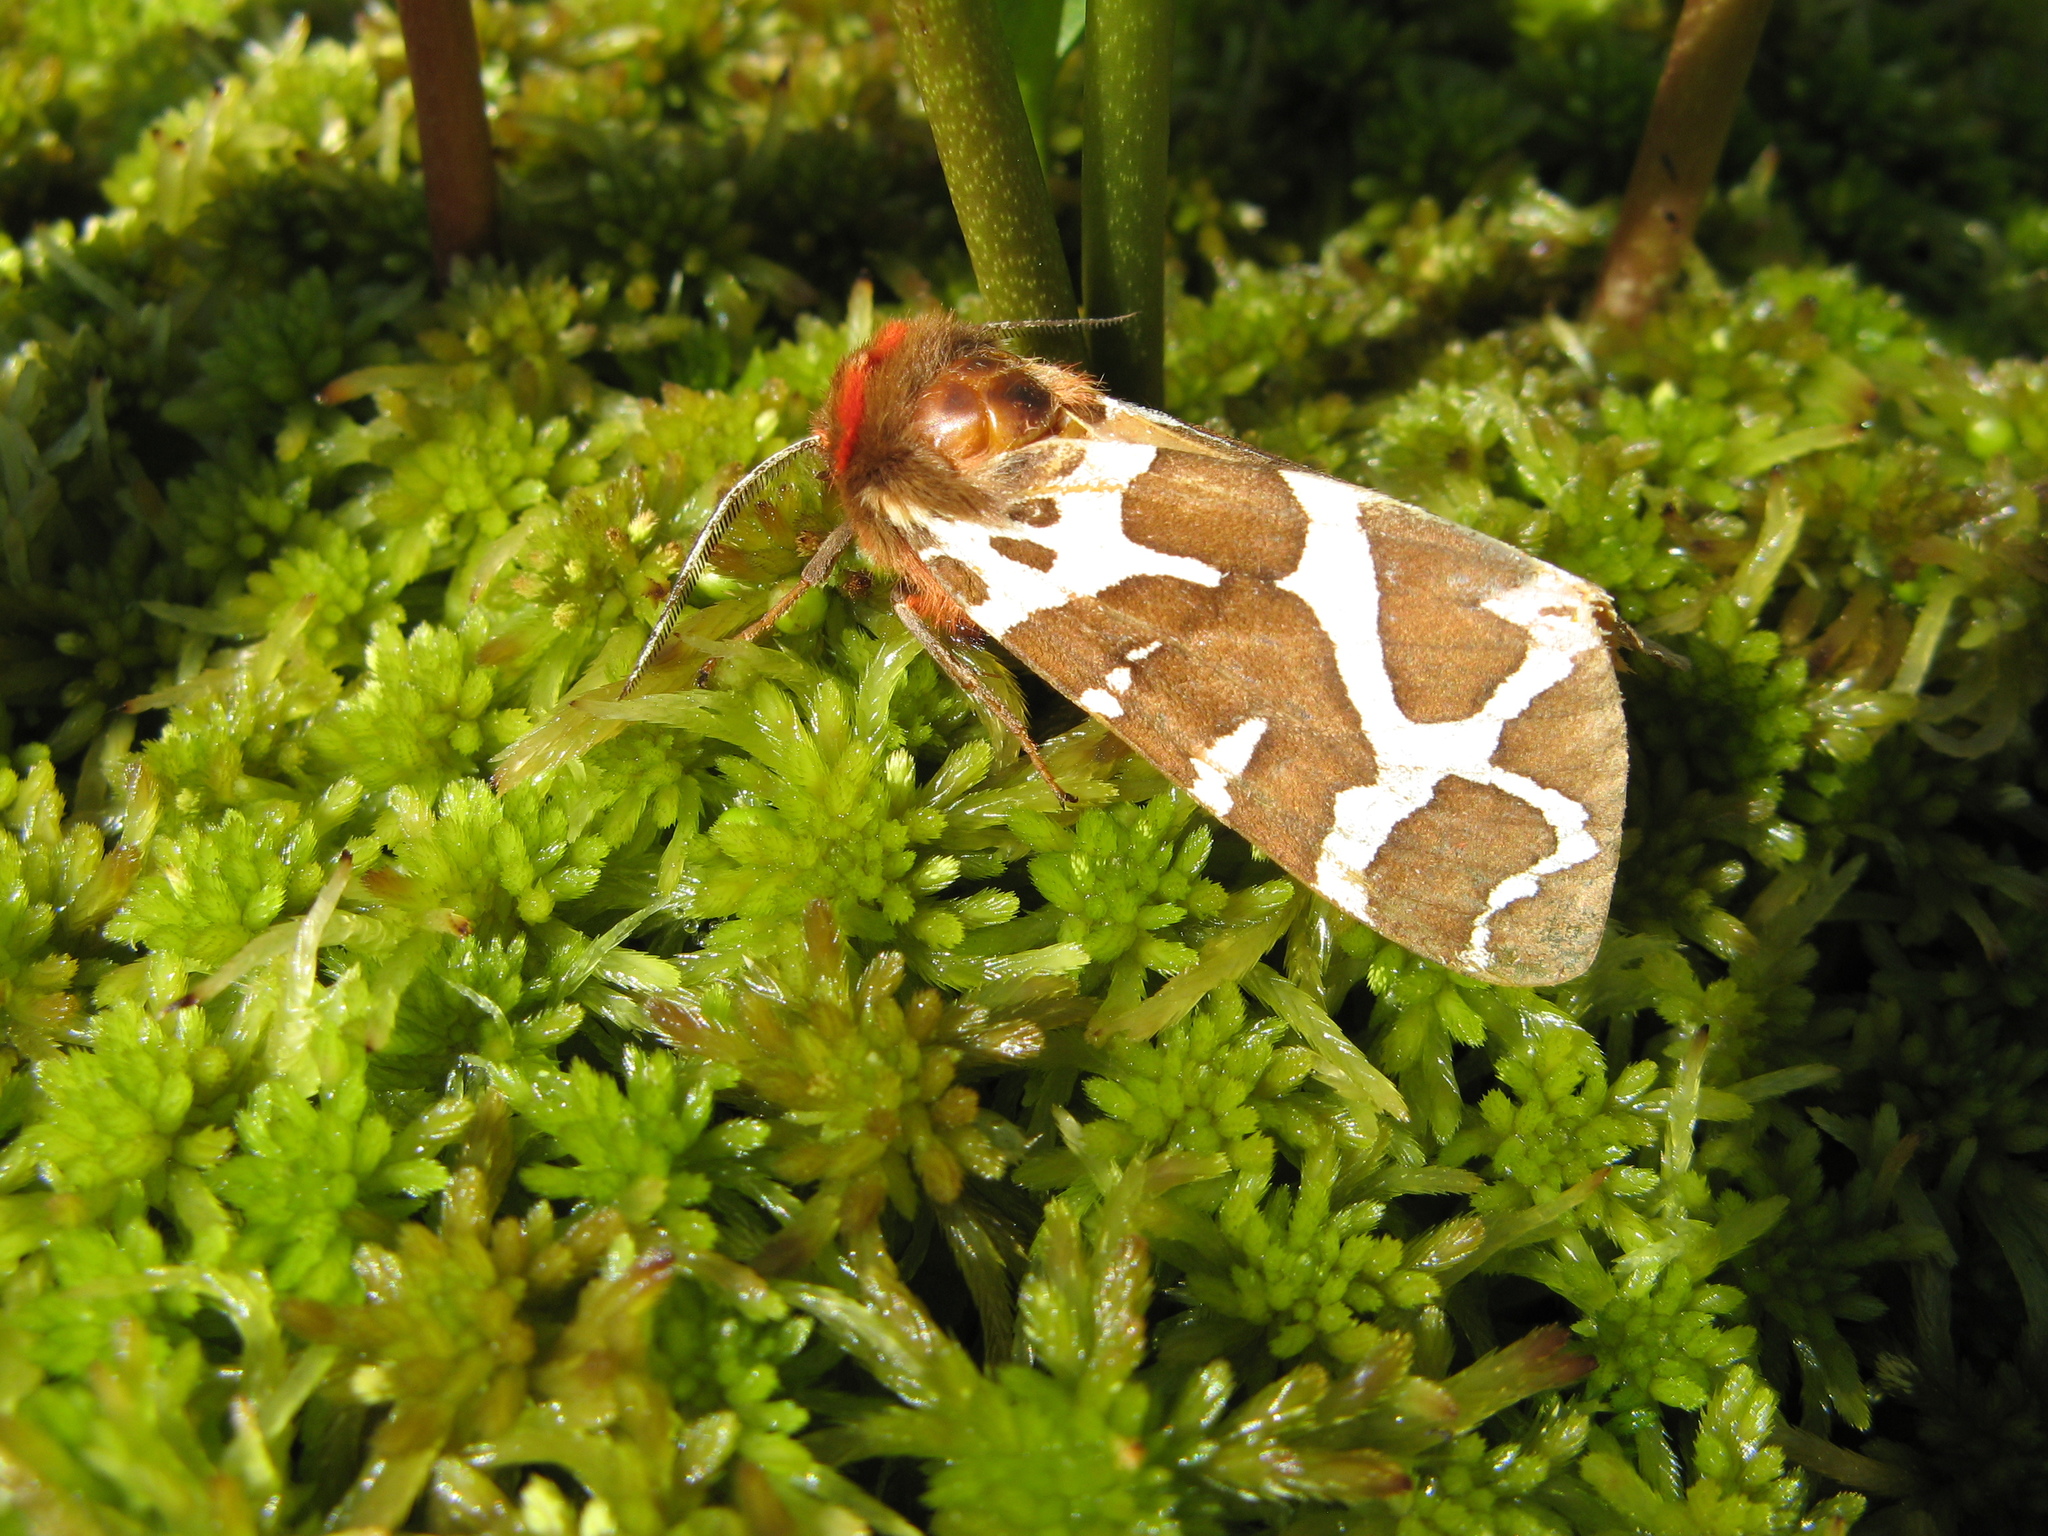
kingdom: Animalia
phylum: Arthropoda
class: Insecta
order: Lepidoptera
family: Erebidae
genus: Arctia
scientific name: Arctia caja
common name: Garden tiger
